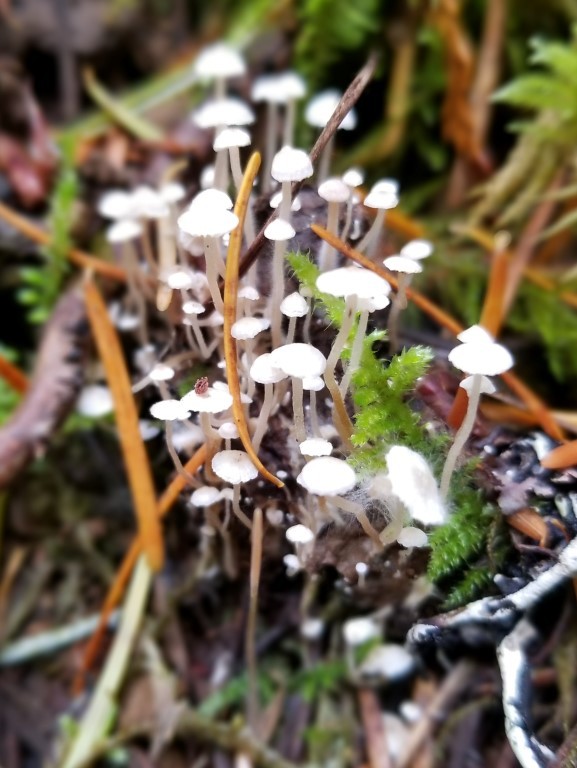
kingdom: Fungi
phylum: Basidiomycota
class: Agaricomycetes
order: Agaricales
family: Tricholomataceae
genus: Collybia
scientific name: Collybia cirrhata
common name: Piggyback shanklet
